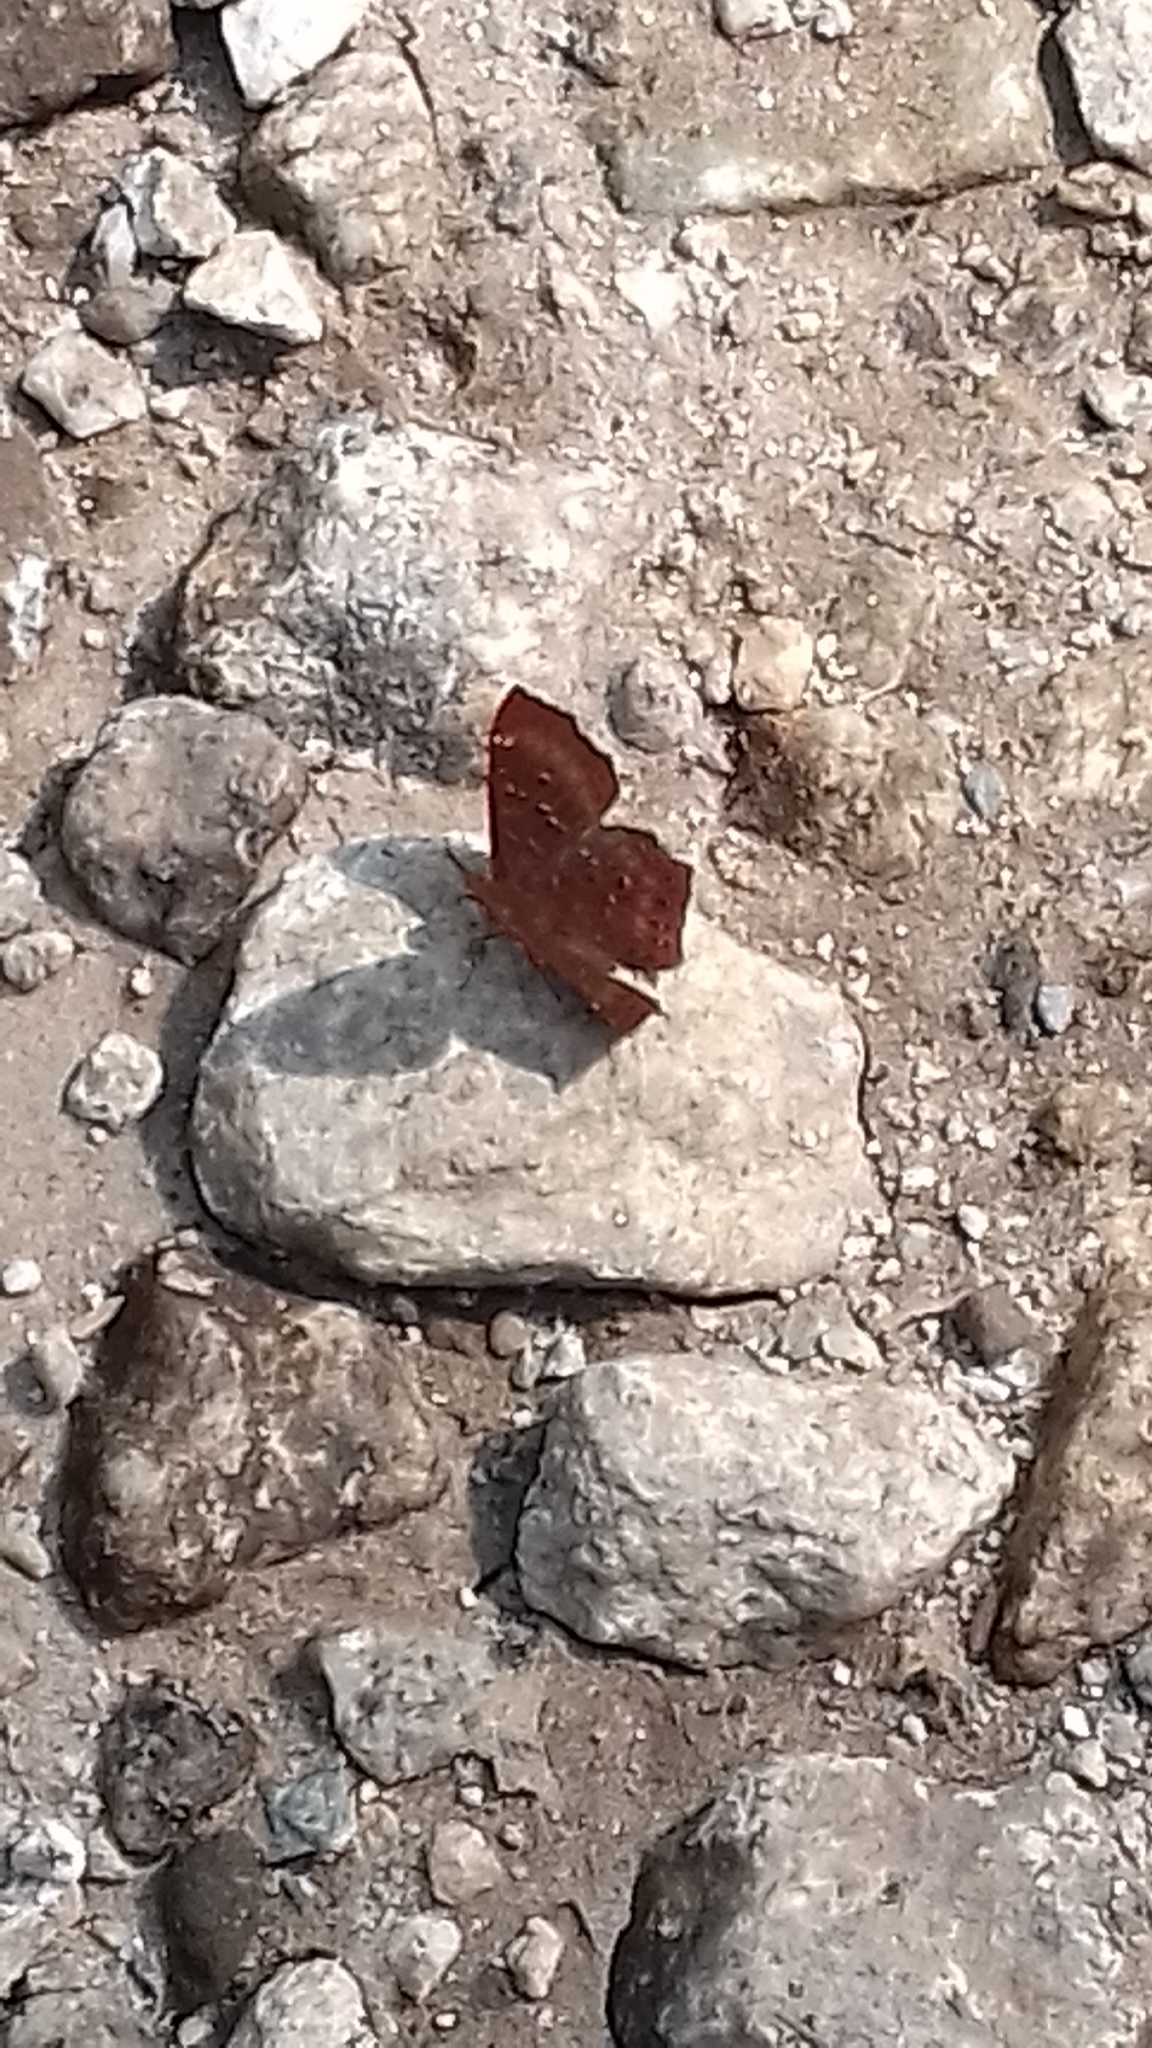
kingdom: Animalia
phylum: Arthropoda
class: Insecta
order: Lepidoptera
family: Riodinidae
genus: Zemeros
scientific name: Zemeros flegyas
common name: Punchinello
